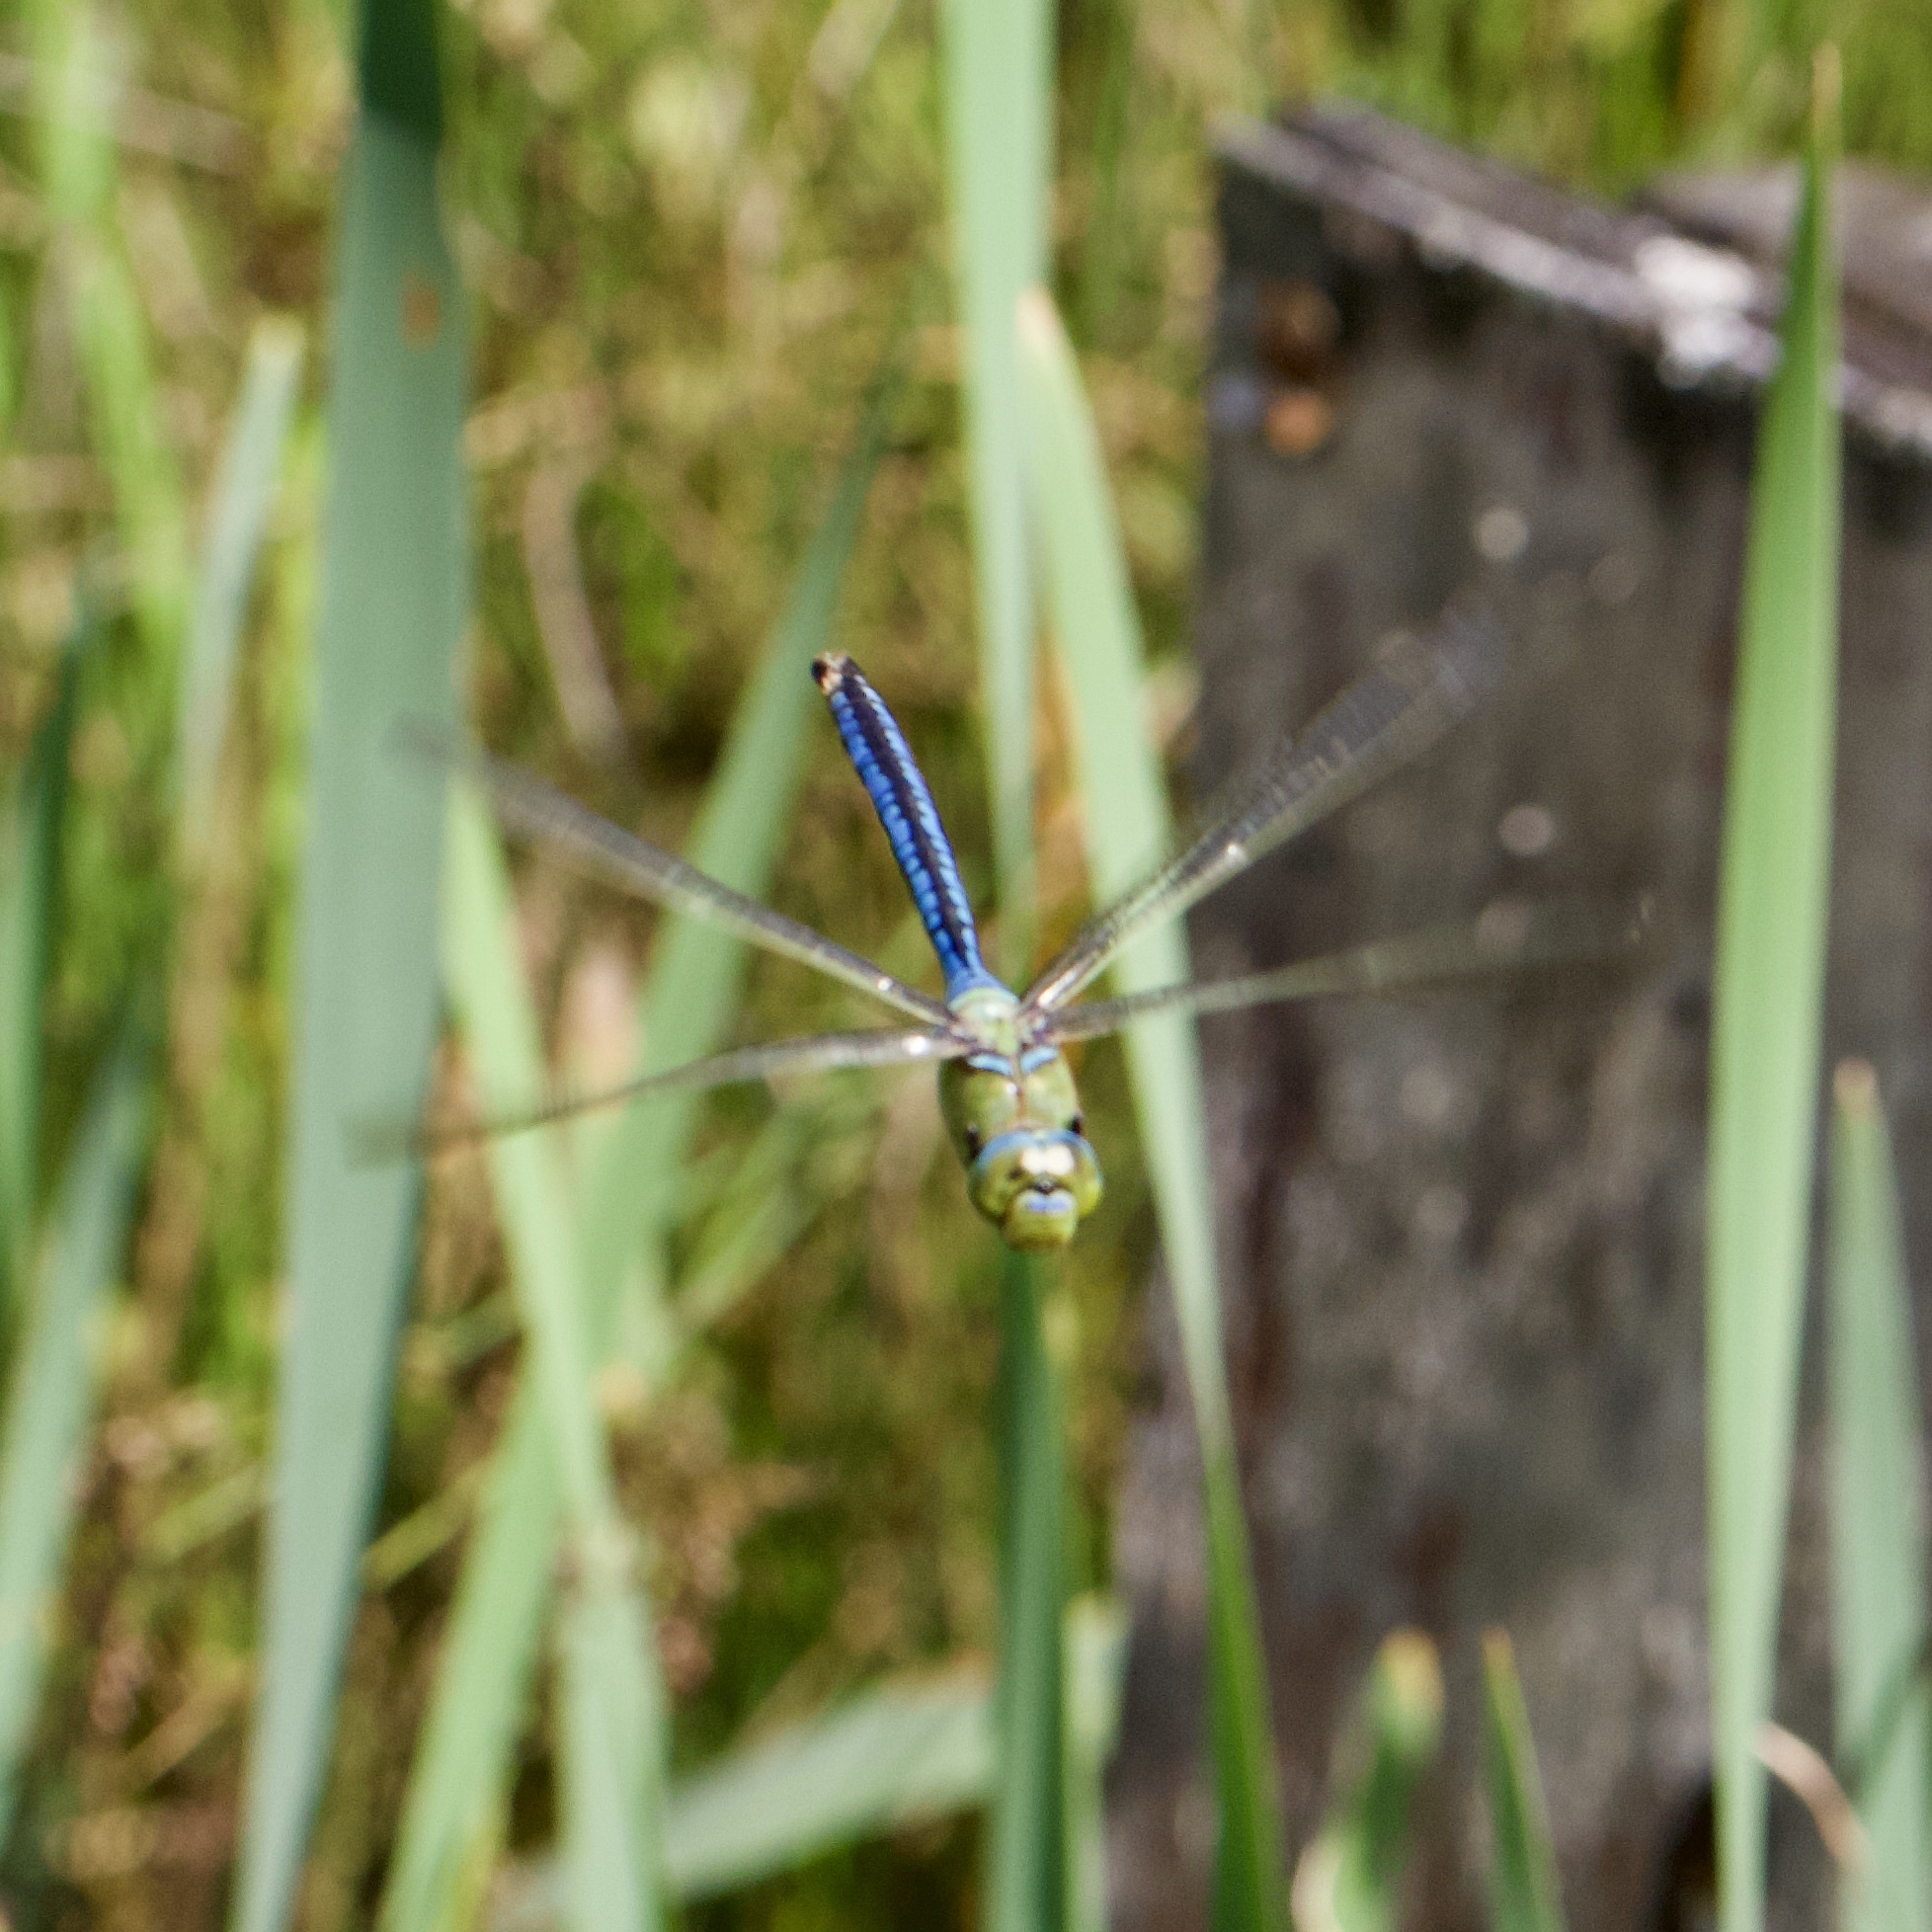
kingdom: Animalia
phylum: Arthropoda
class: Insecta
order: Odonata
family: Aeshnidae
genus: Anax
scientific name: Anax imperator
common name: Emperor dragonfly
